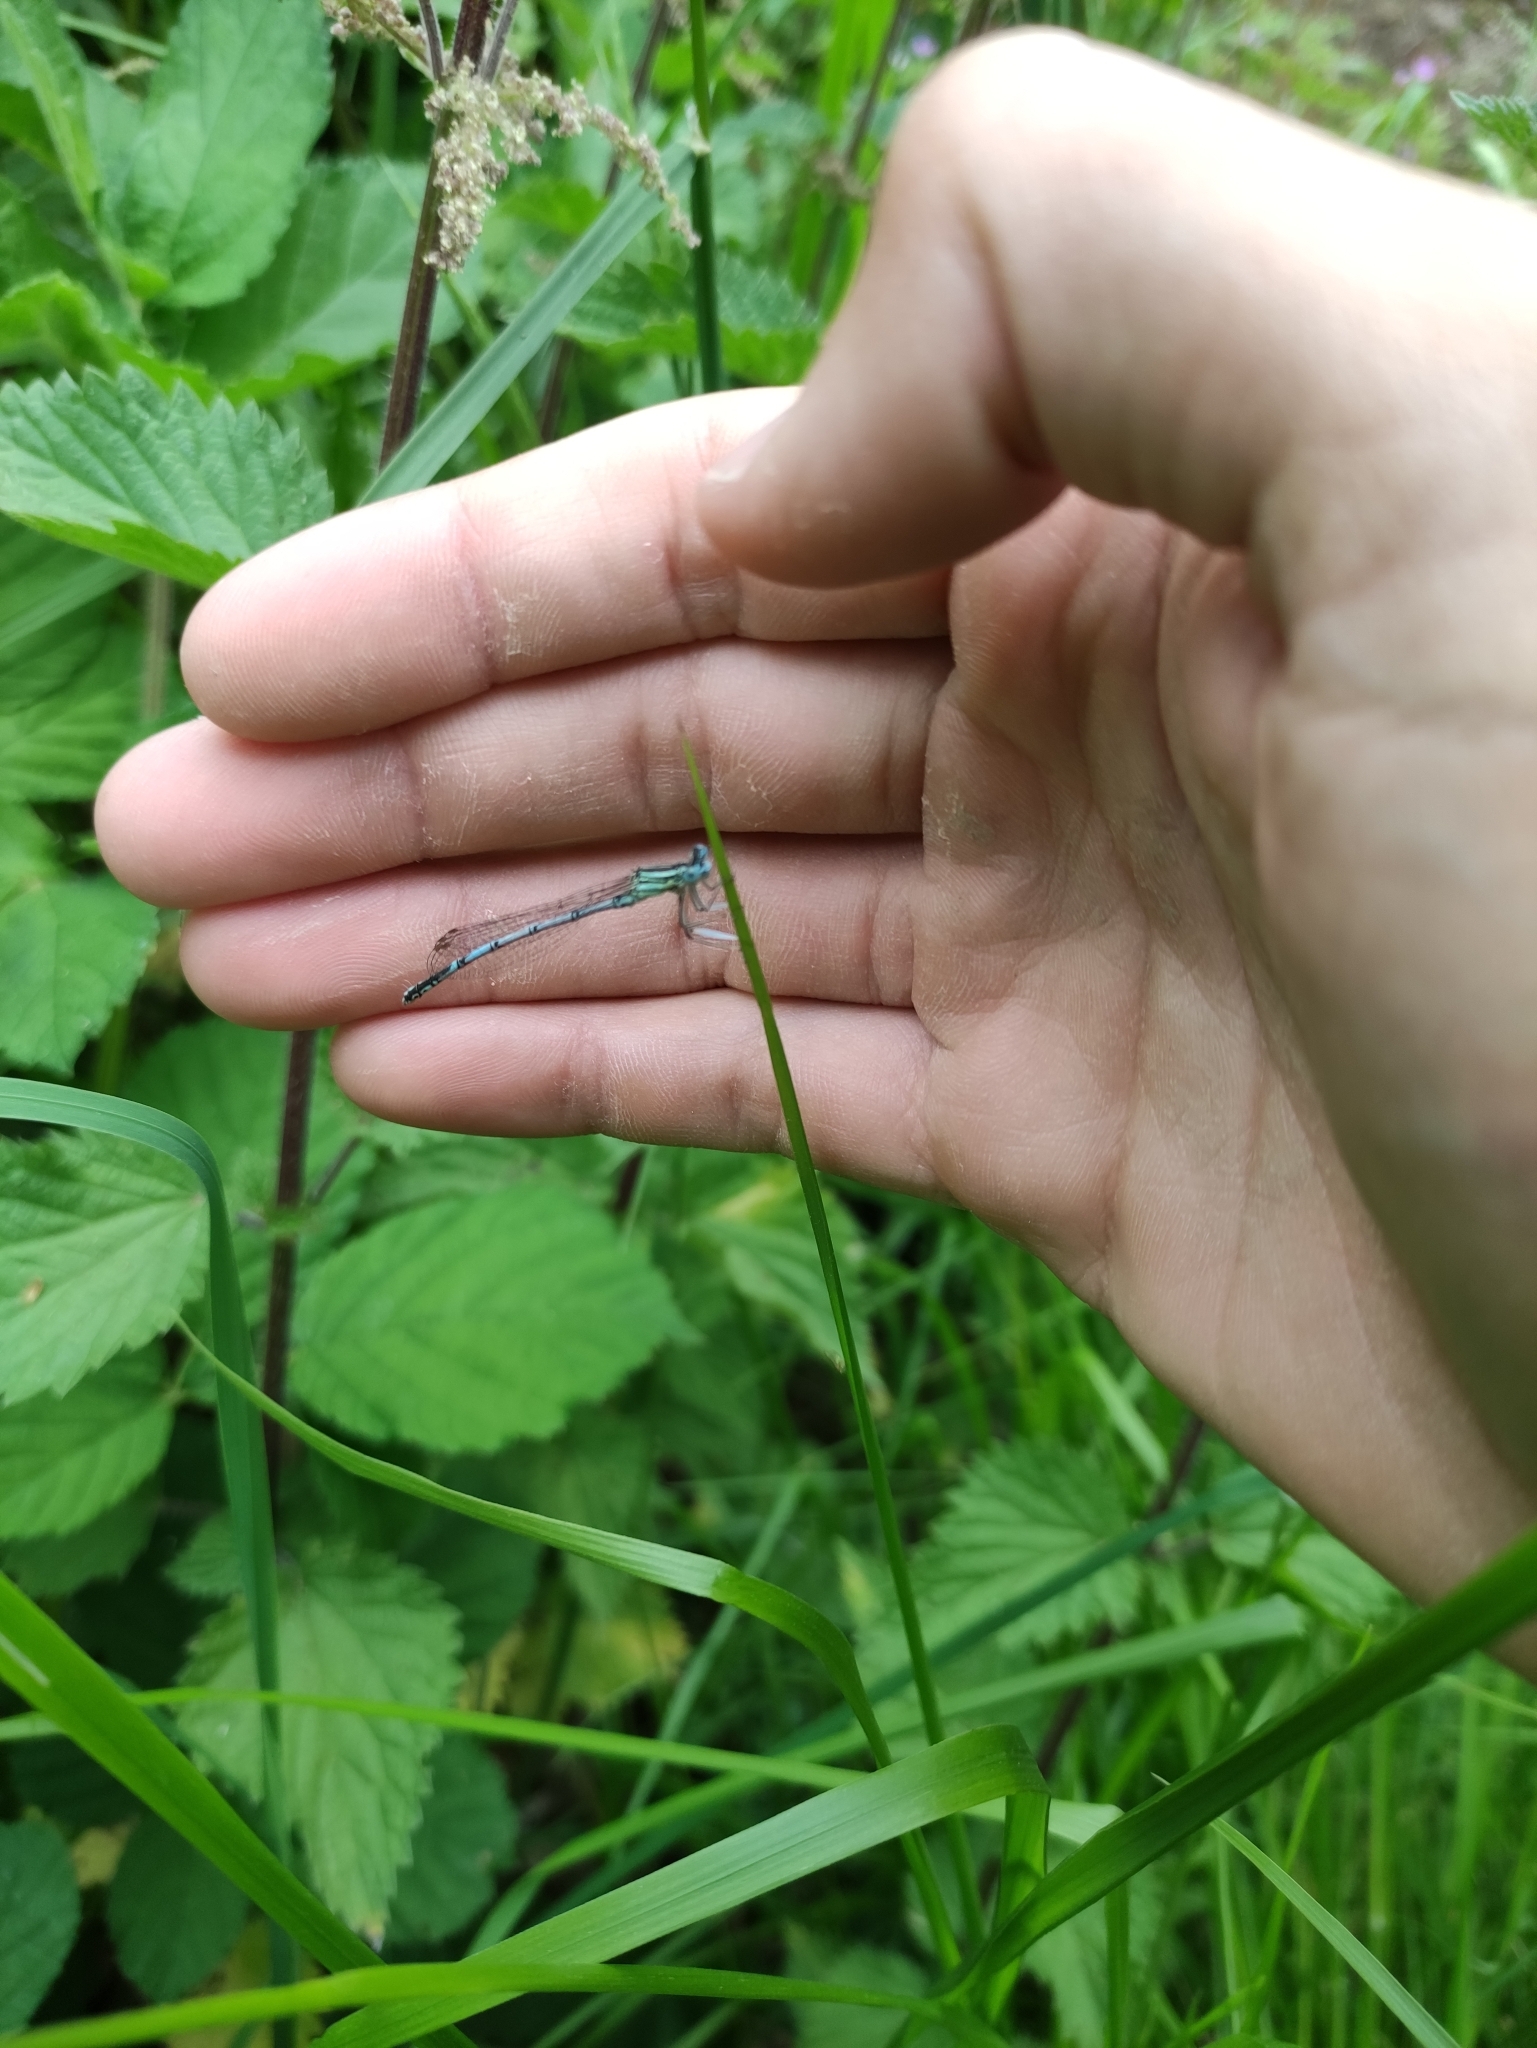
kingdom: Animalia
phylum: Arthropoda
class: Insecta
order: Odonata
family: Platycnemididae
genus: Platycnemis
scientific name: Platycnemis pennipes
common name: White-legged damselfly
